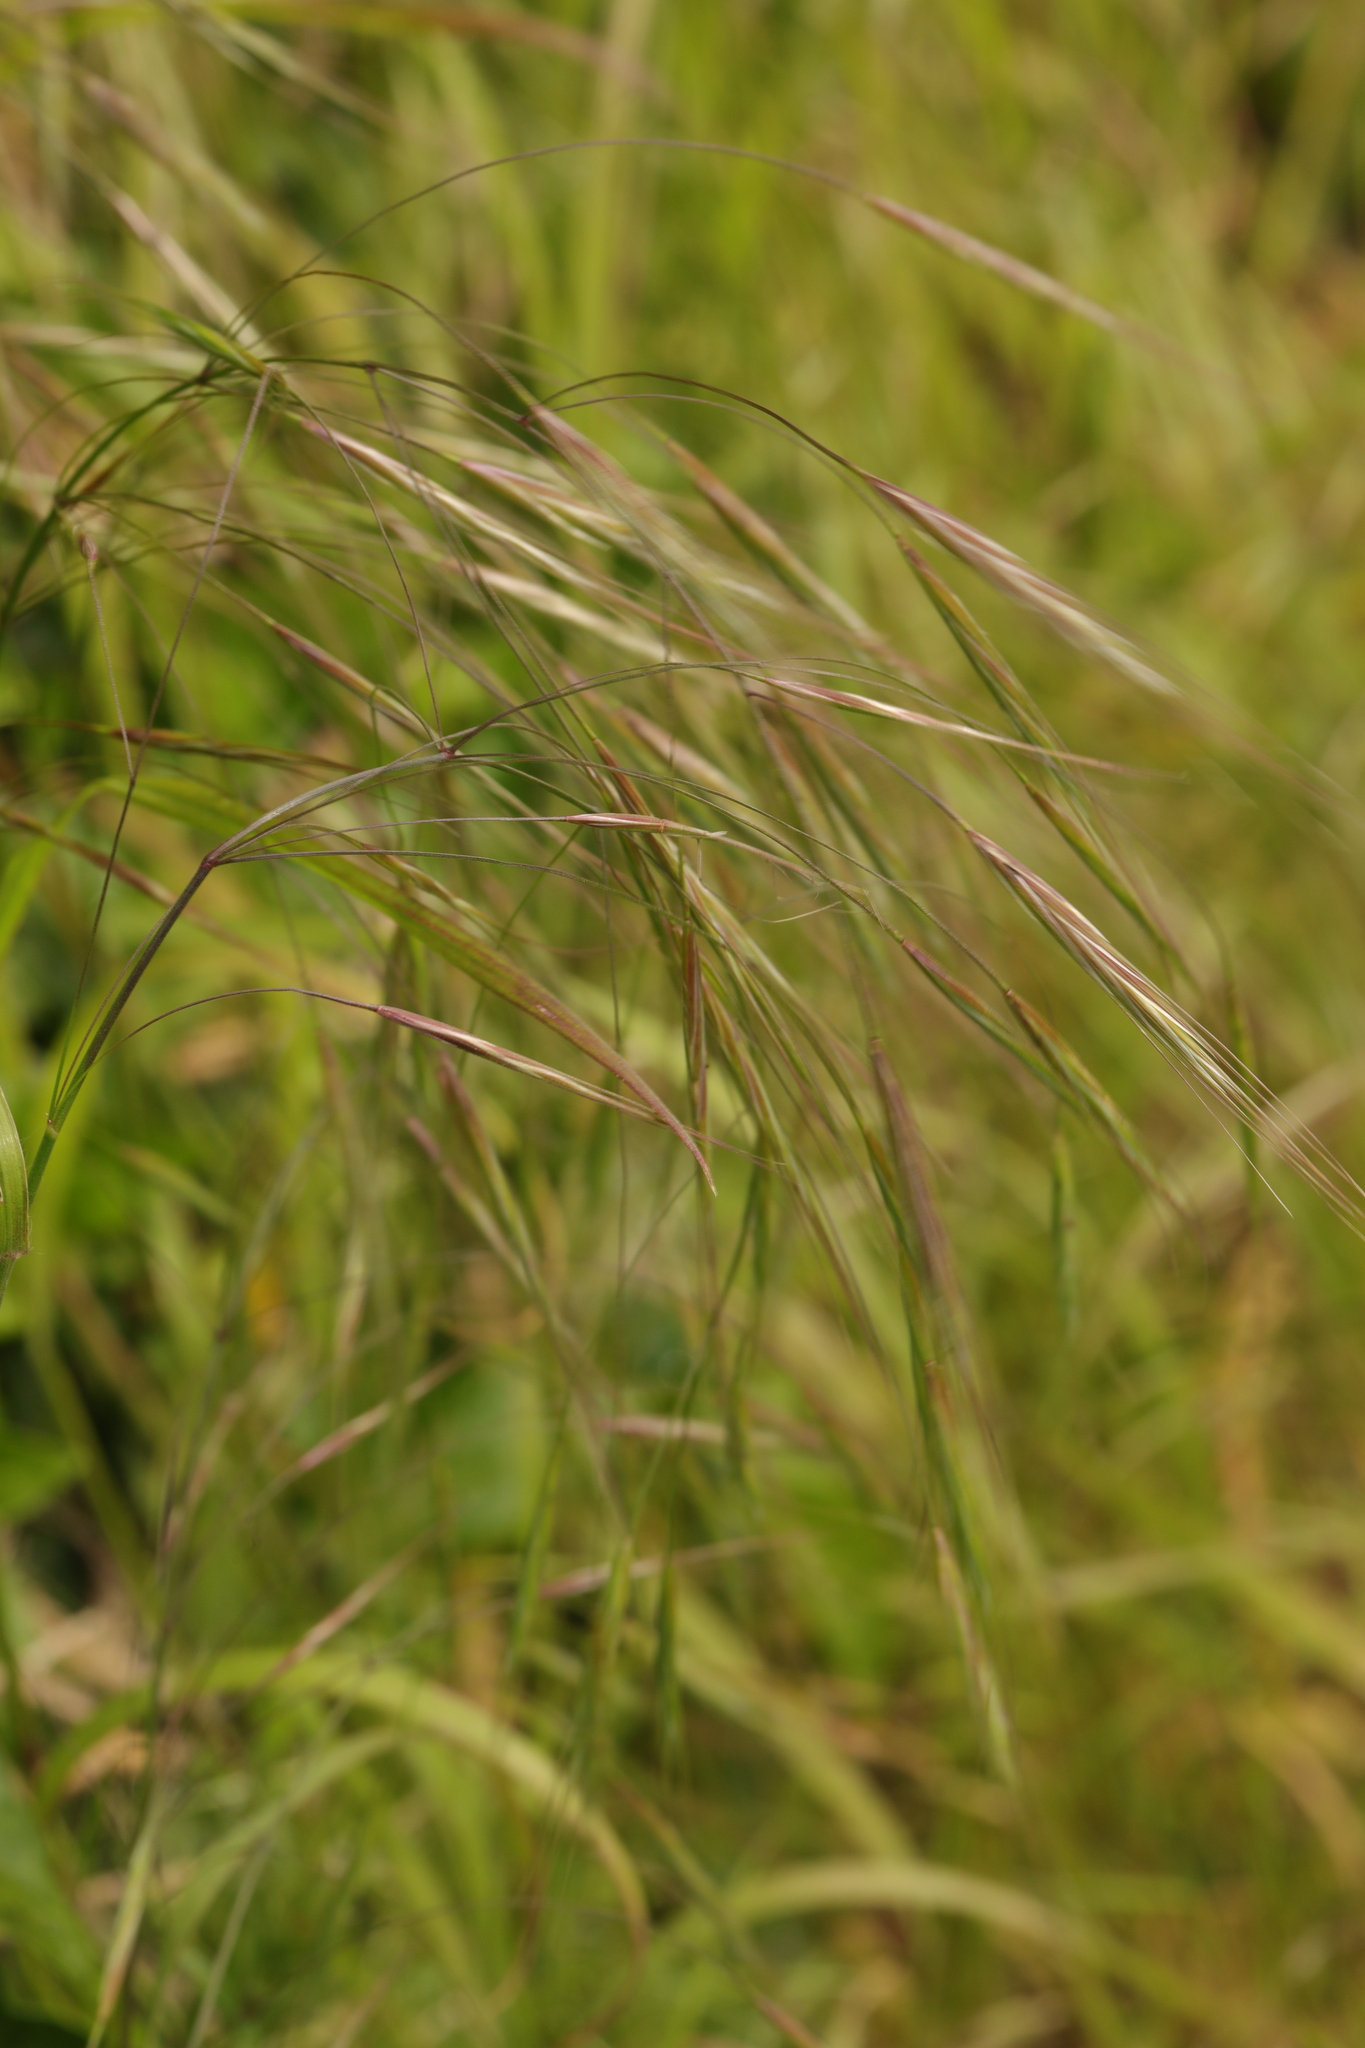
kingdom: Plantae
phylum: Tracheophyta
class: Liliopsida
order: Poales
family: Poaceae
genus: Bromus
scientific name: Bromus sterilis
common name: Poverty brome
